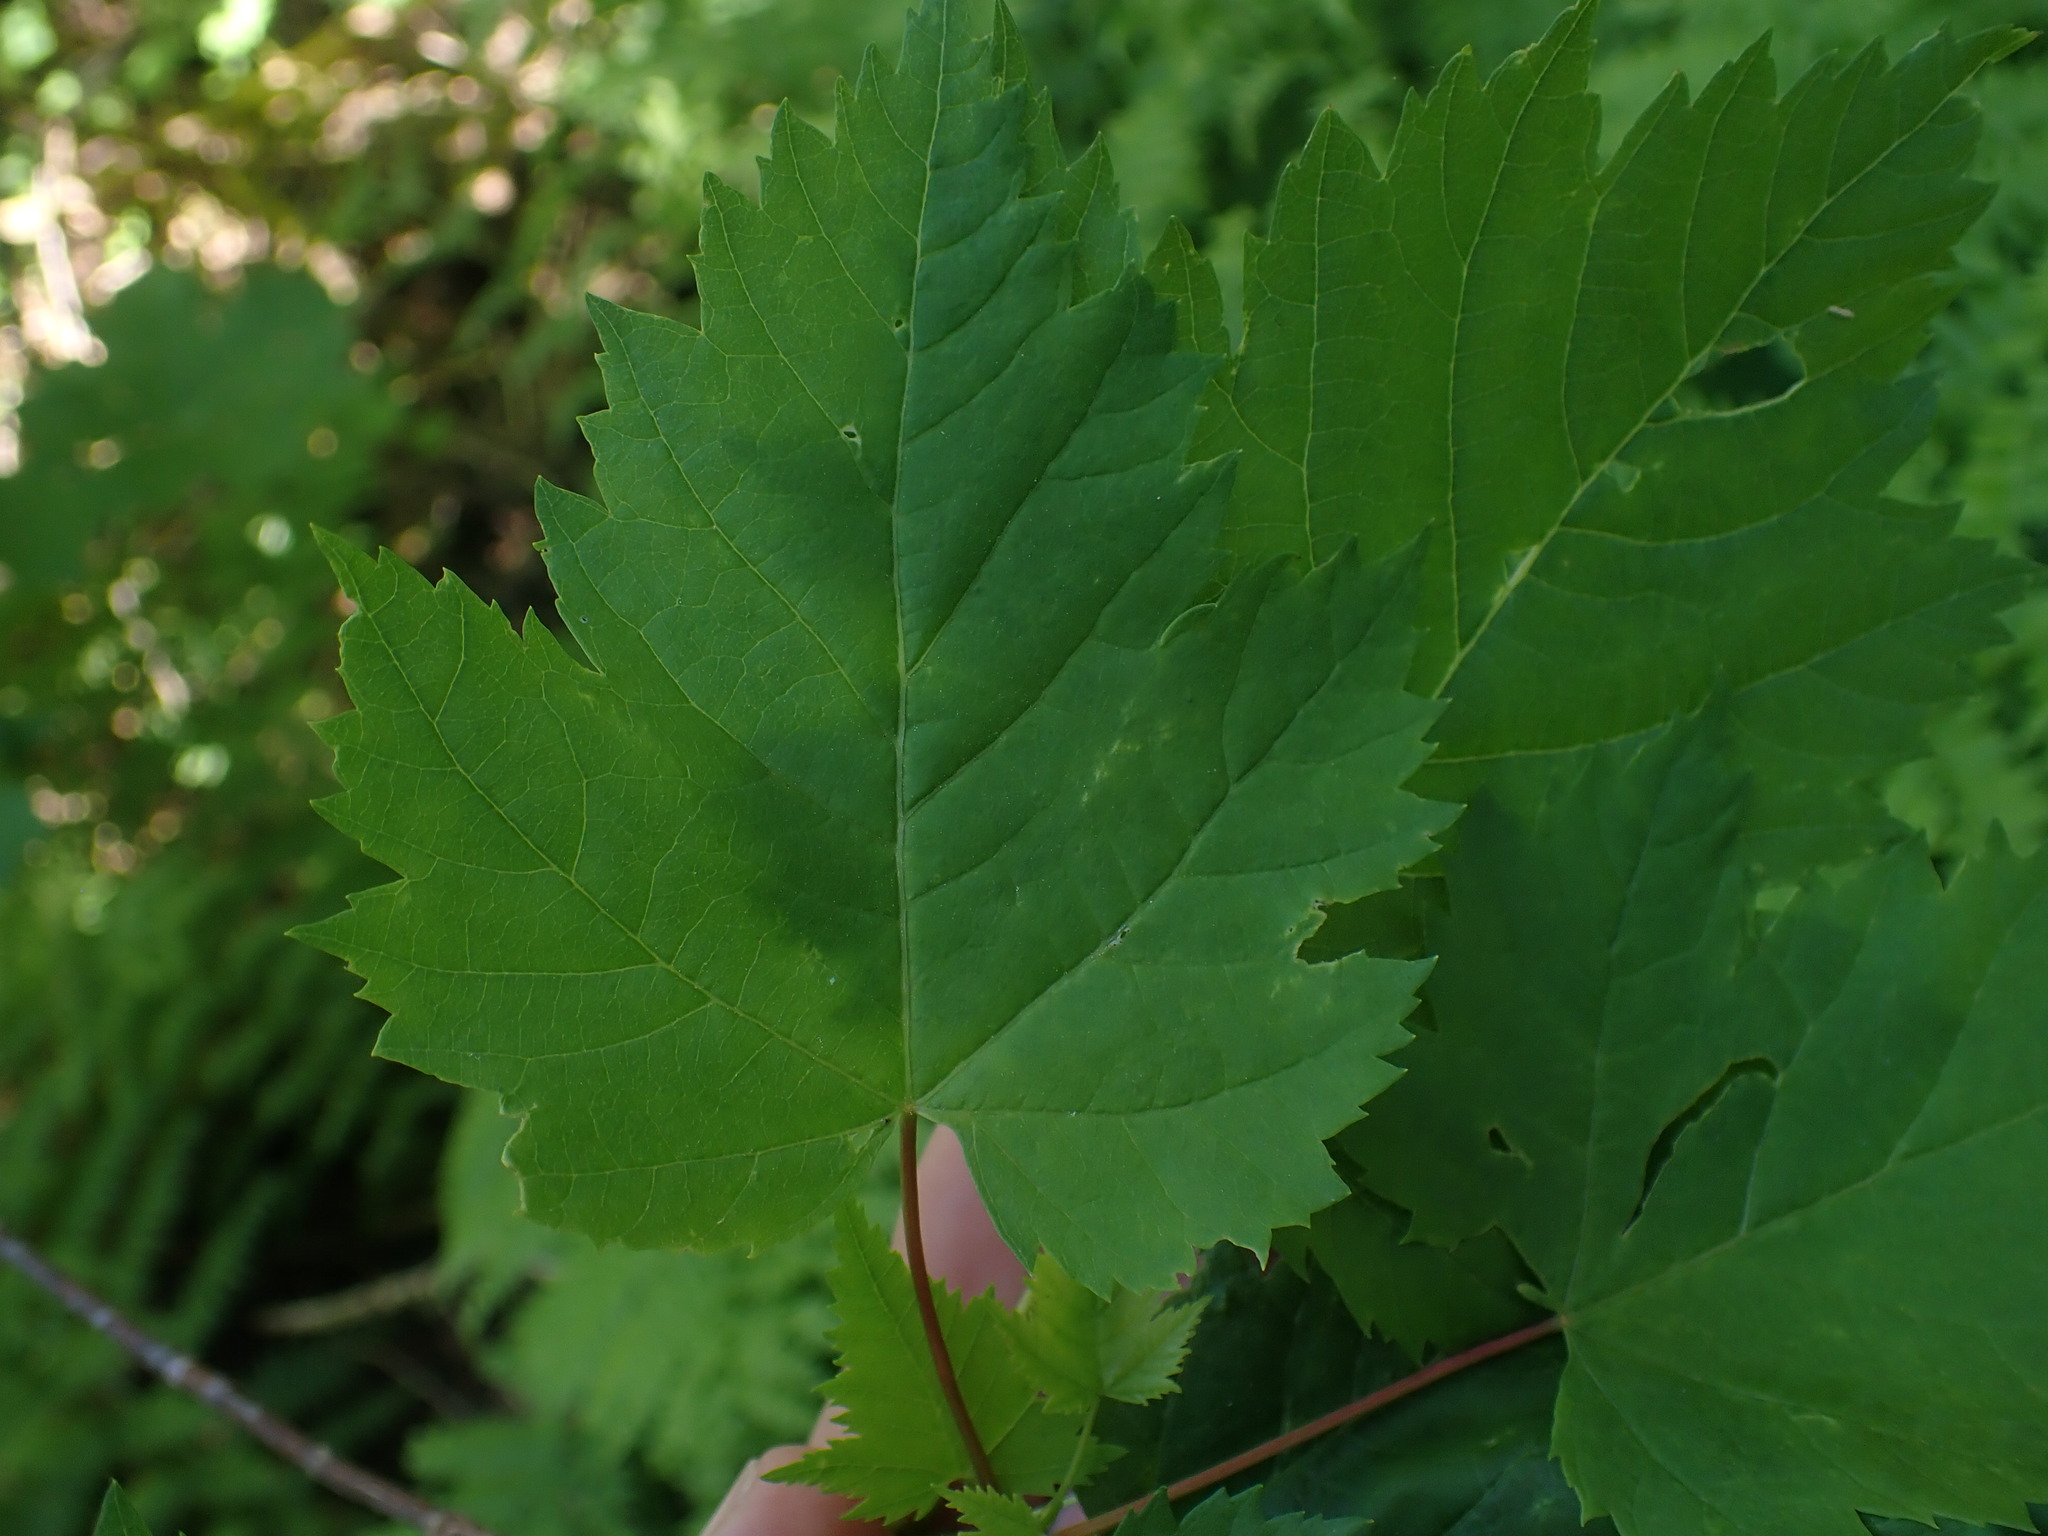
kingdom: Plantae
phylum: Tracheophyta
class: Magnoliopsida
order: Sapindales
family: Sapindaceae
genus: Acer
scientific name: Acer glabrum
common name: Rocky mountain maple
